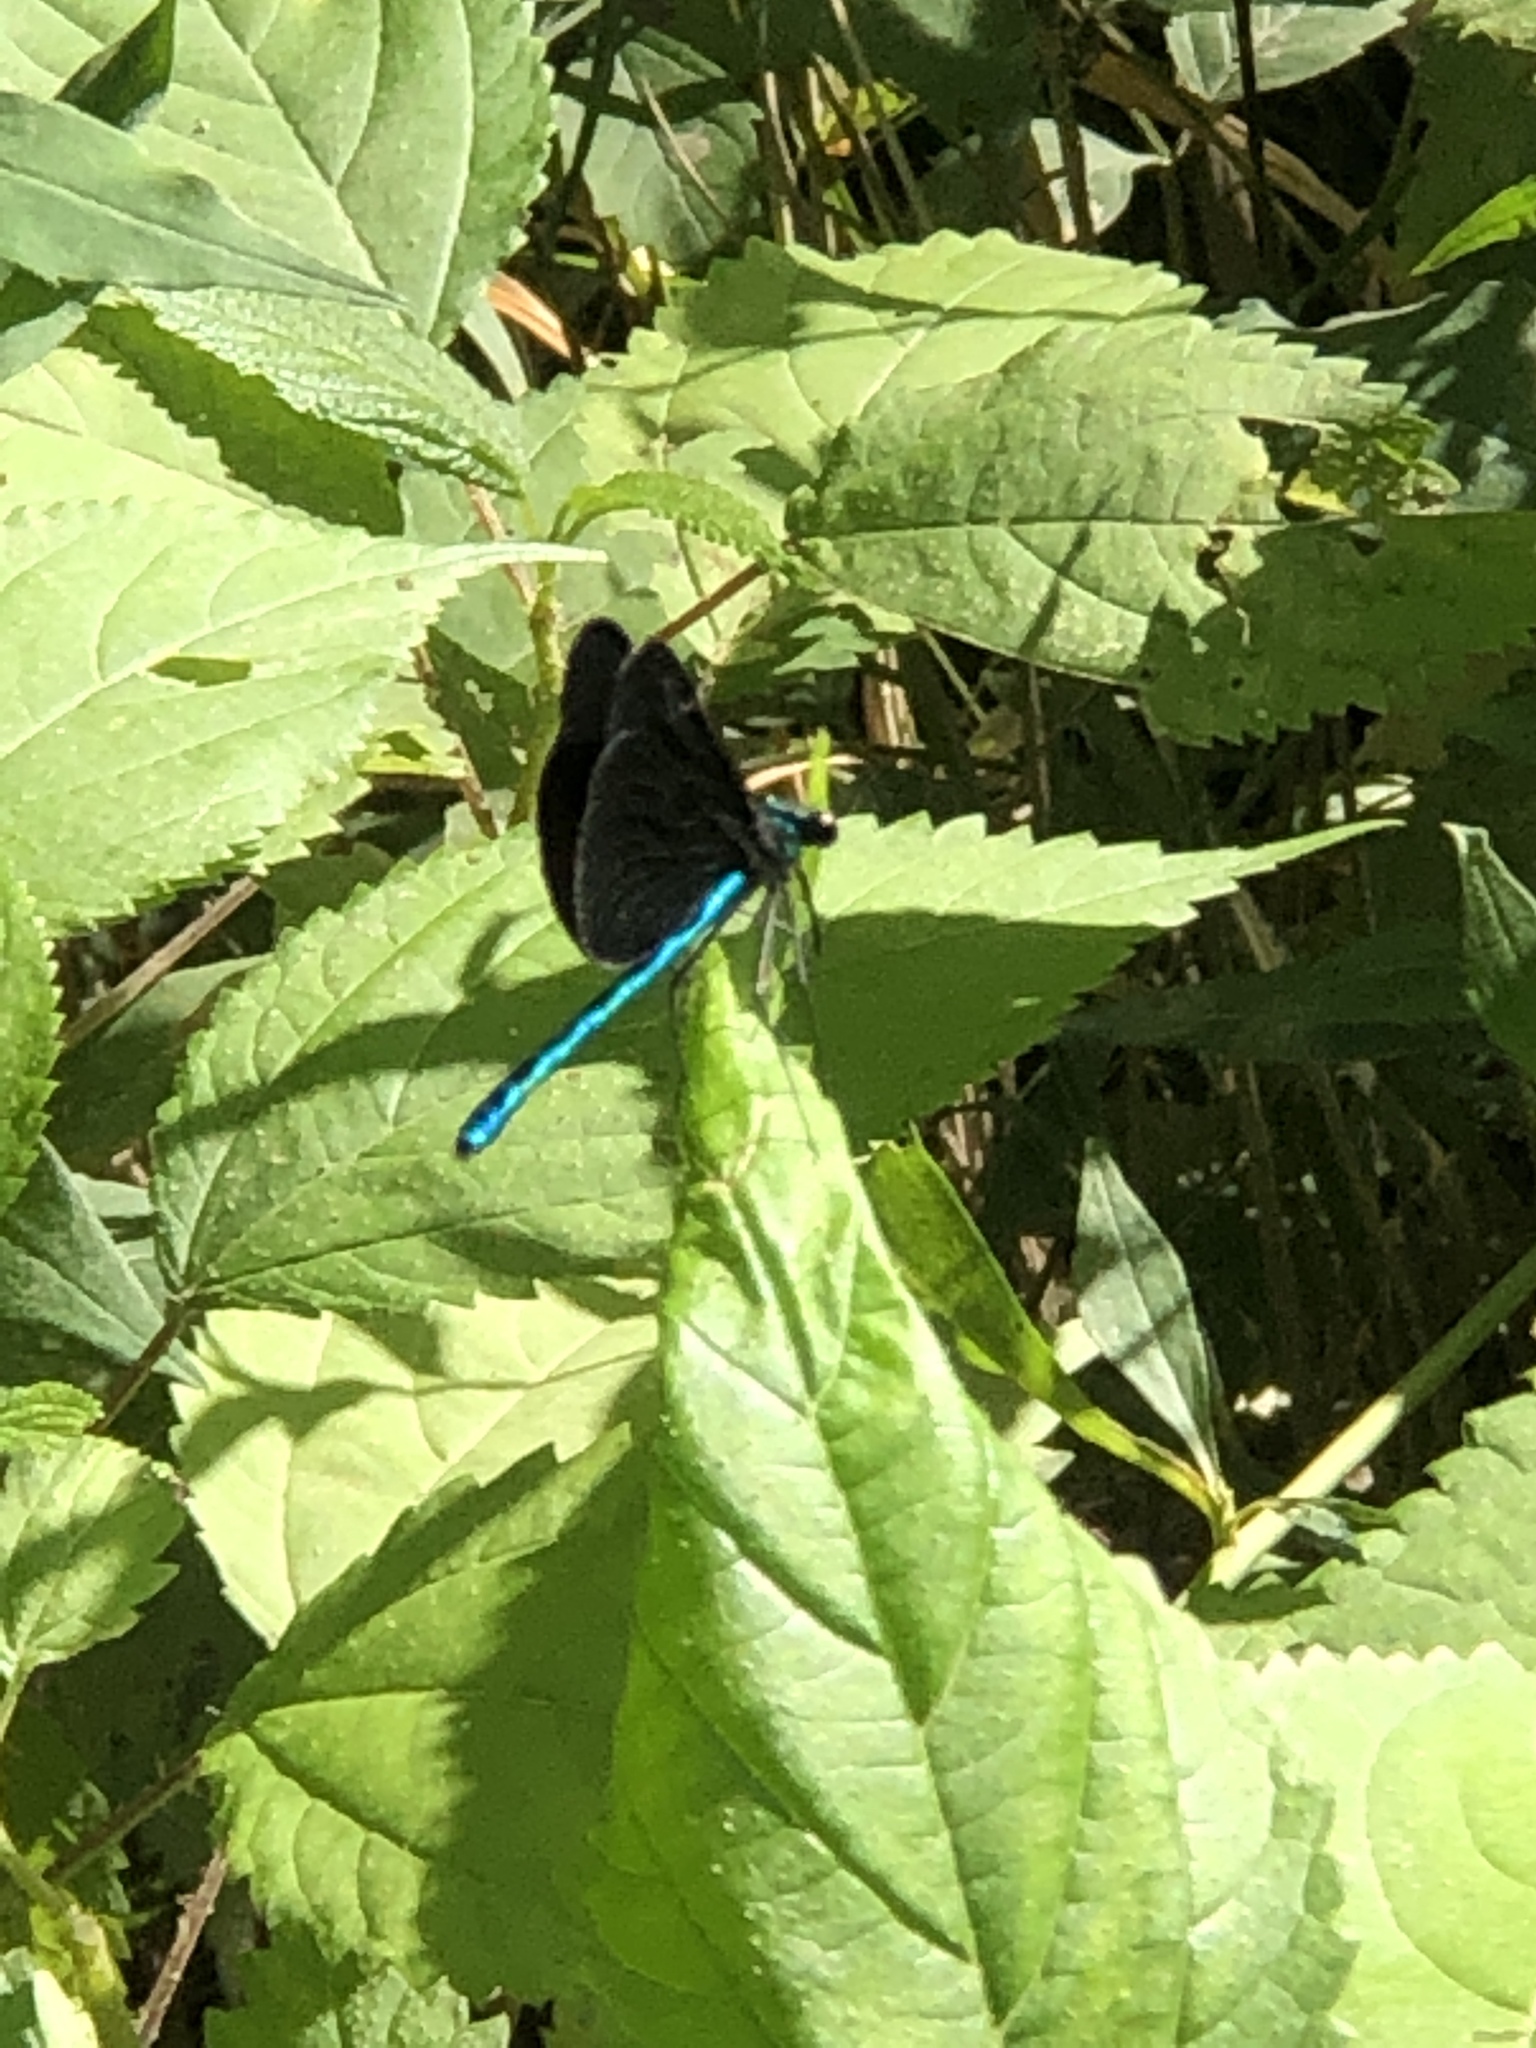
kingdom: Animalia
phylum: Arthropoda
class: Insecta
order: Odonata
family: Calopterygidae
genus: Calopteryx
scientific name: Calopteryx maculata
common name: Ebony jewelwing
